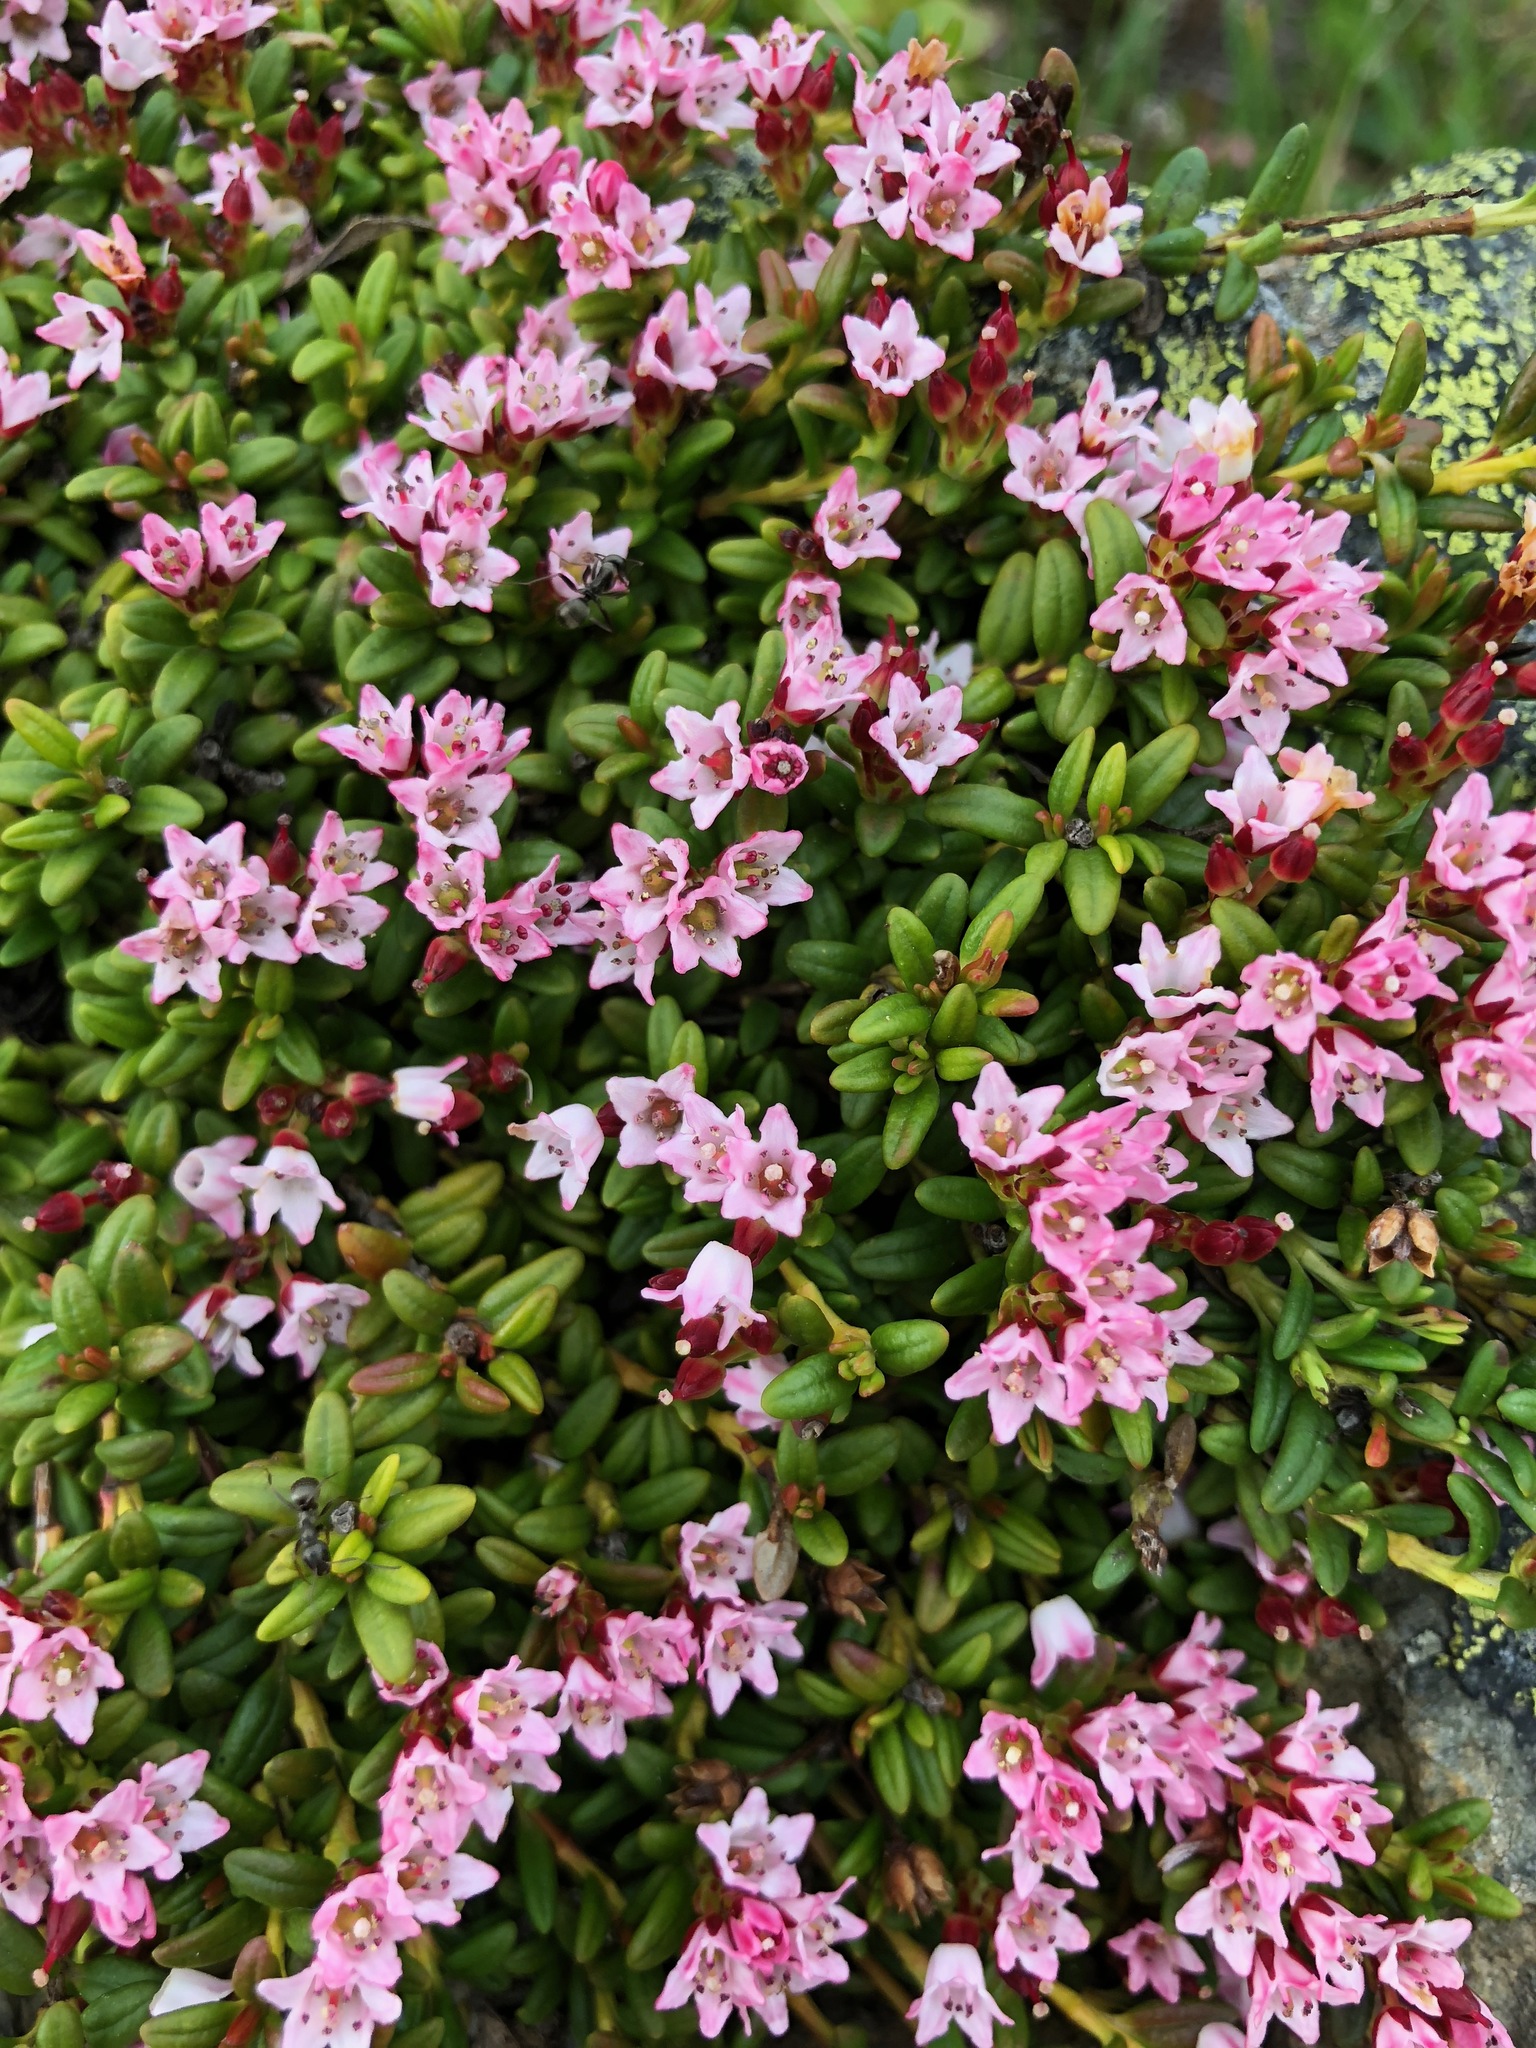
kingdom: Plantae
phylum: Tracheophyta
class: Magnoliopsida
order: Ericales
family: Ericaceae
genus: Kalmia
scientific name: Kalmia procumbens
